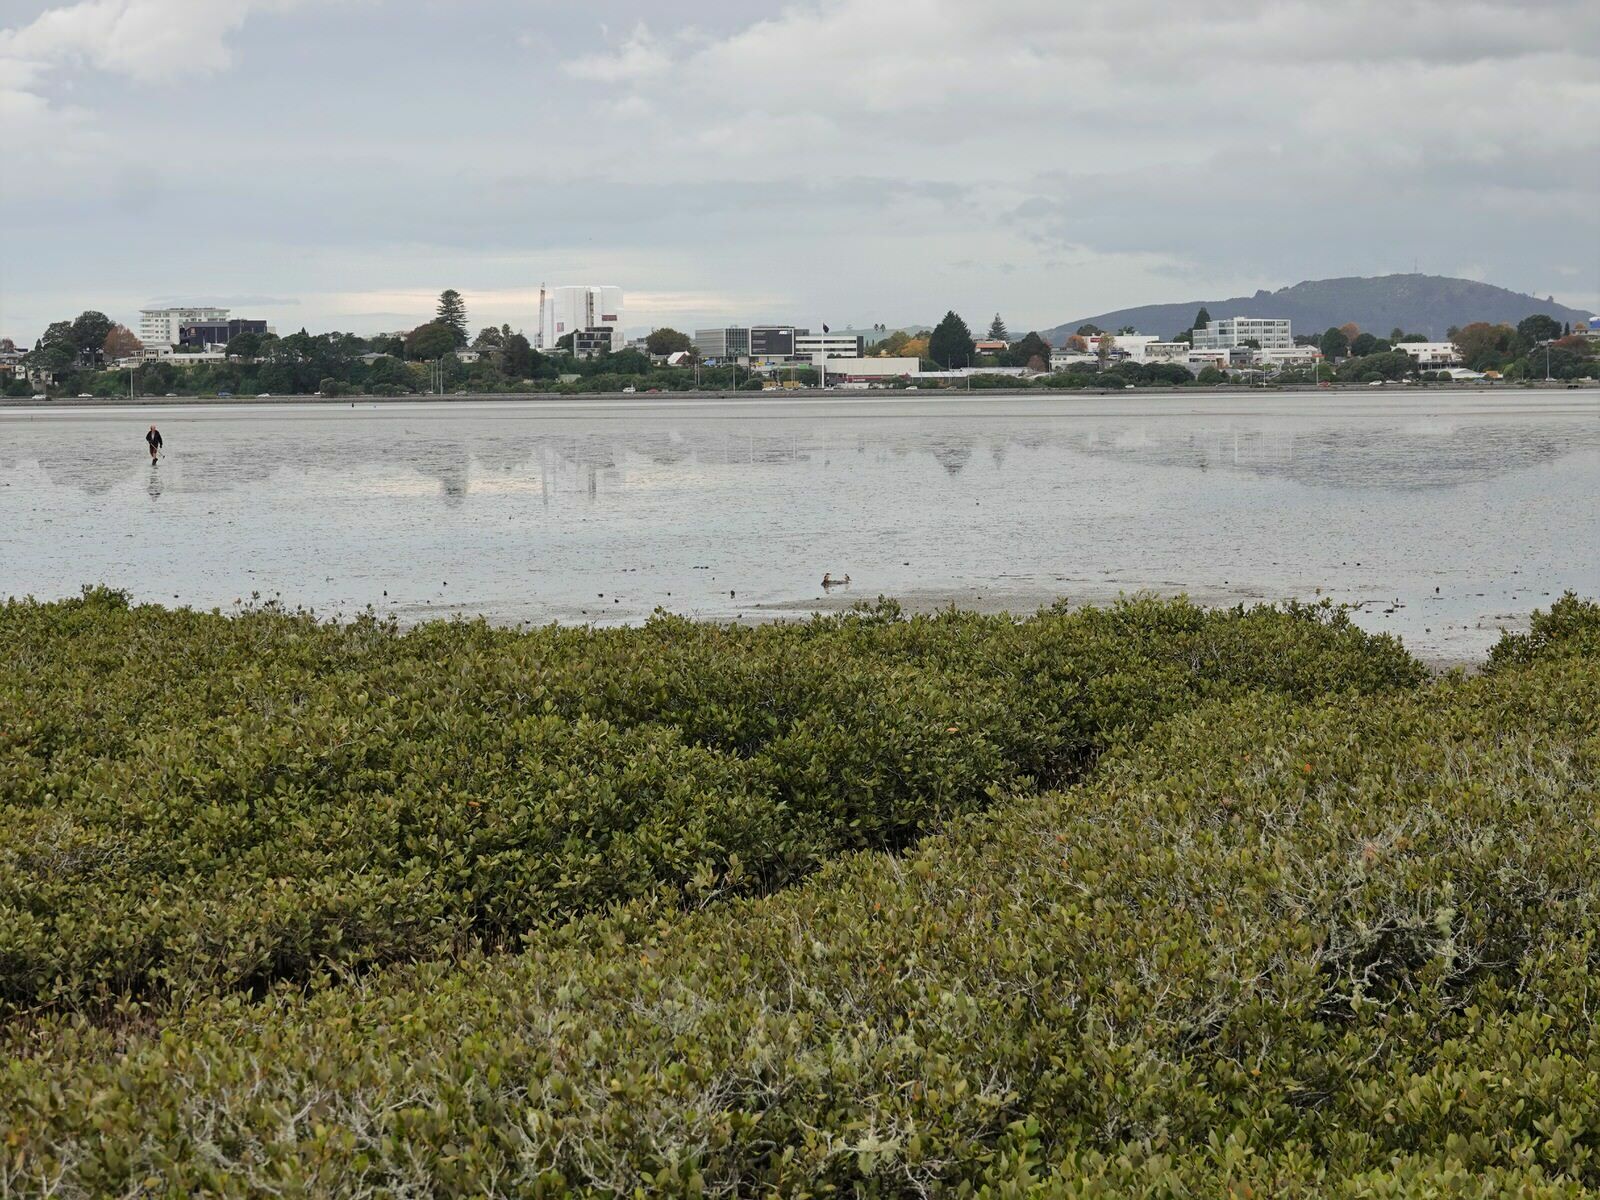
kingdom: Animalia
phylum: Chordata
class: Aves
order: Coraciiformes
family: Alcedinidae
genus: Todiramphus
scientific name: Todiramphus sanctus
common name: Sacred kingfisher
